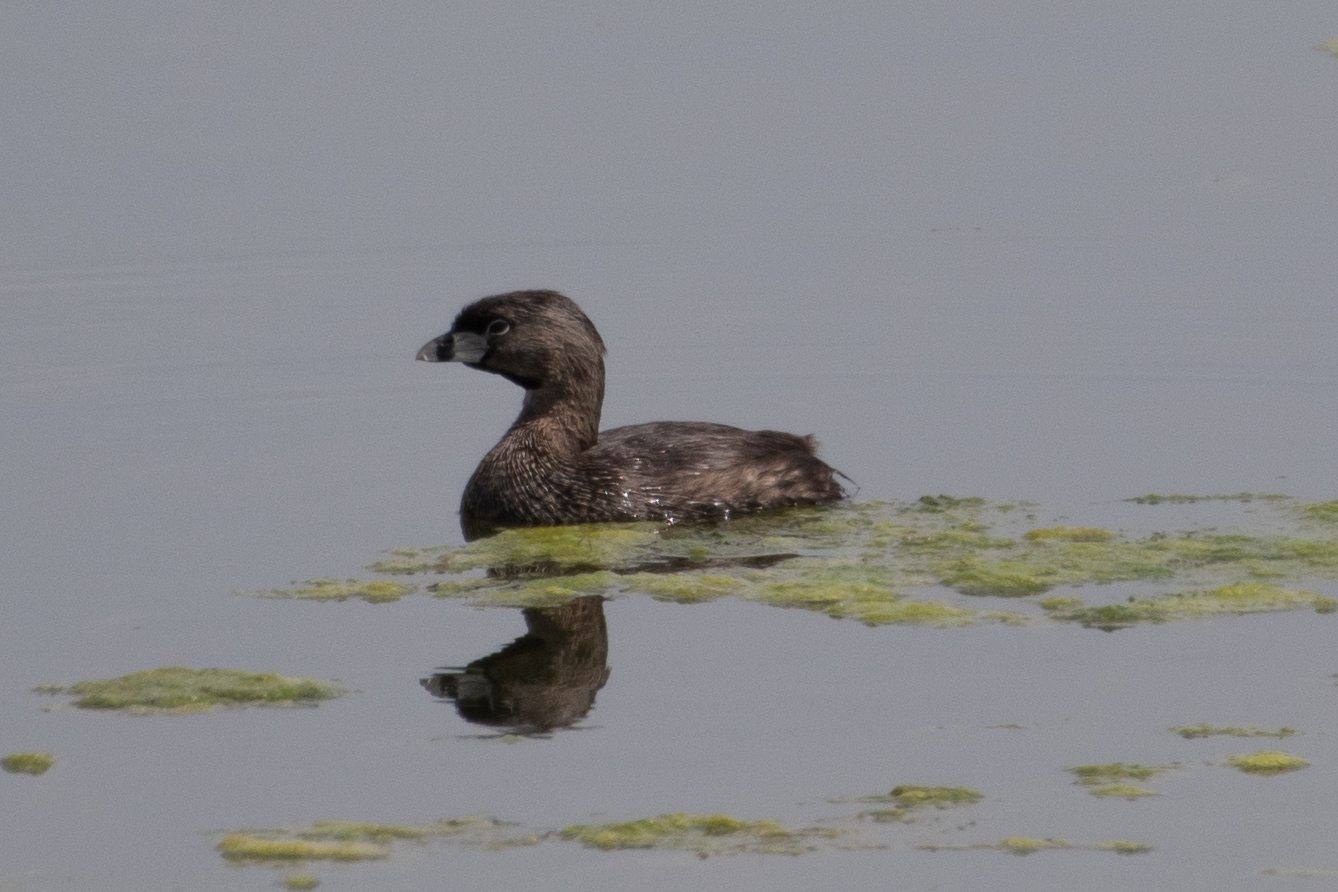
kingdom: Animalia
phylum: Chordata
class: Aves
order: Podicipediformes
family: Podicipedidae
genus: Podilymbus
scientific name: Podilymbus podiceps
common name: Pied-billed grebe
